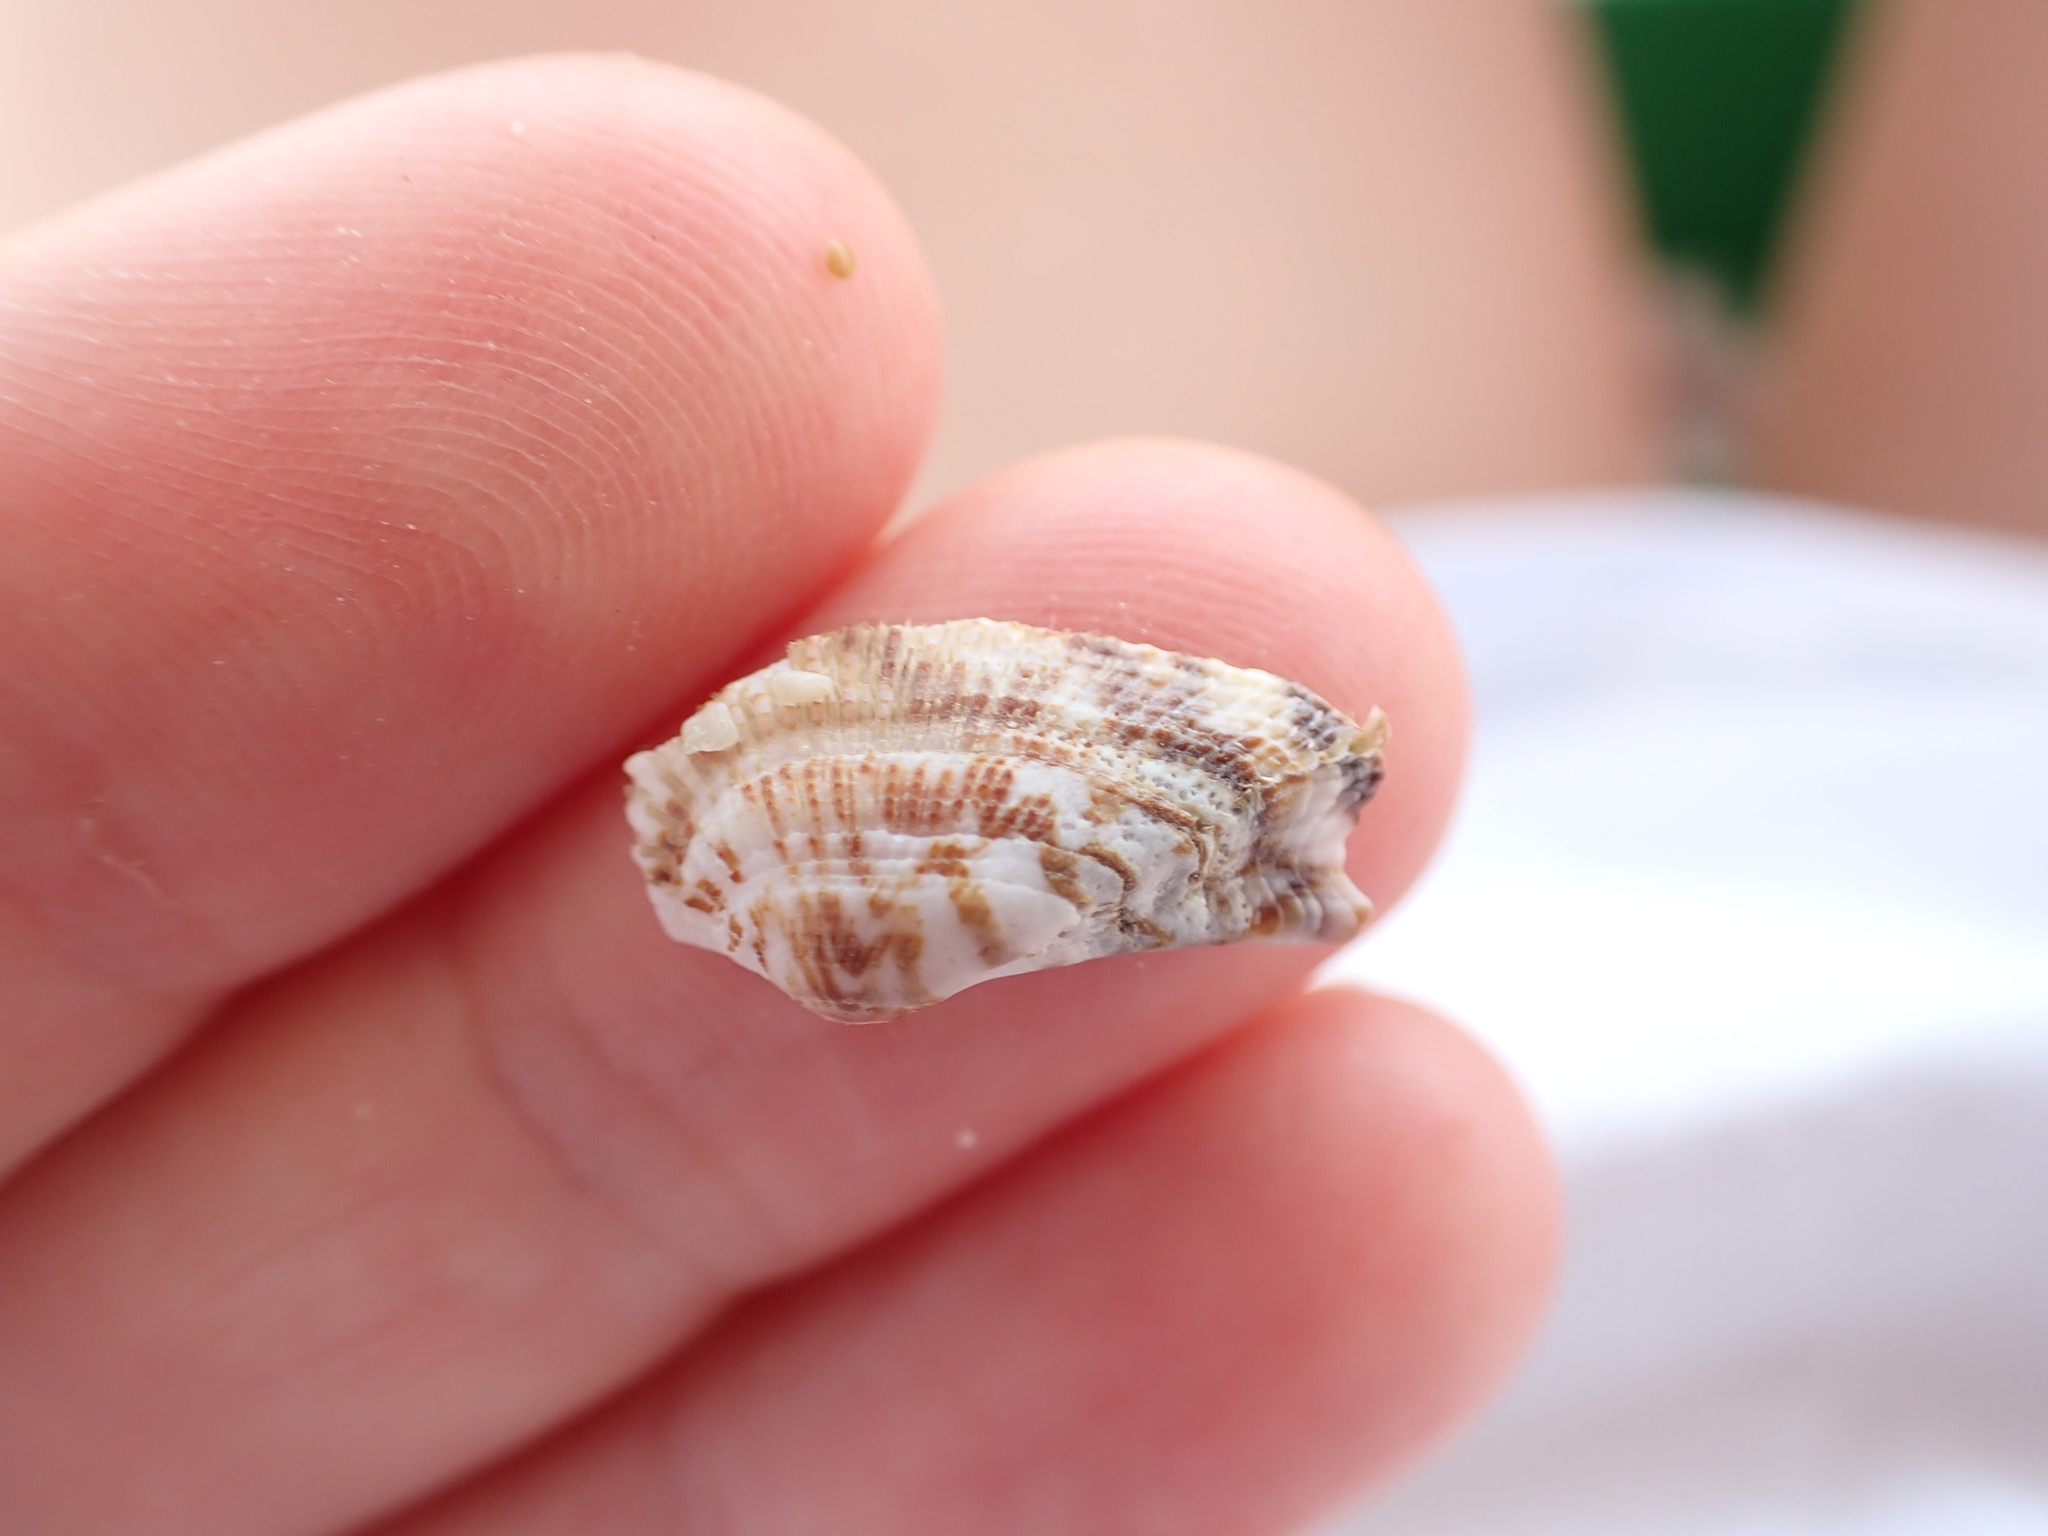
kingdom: Animalia
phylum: Mollusca
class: Bivalvia
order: Arcida
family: Arcidae
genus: Arca
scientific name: Arca noae
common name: Noah's arch
